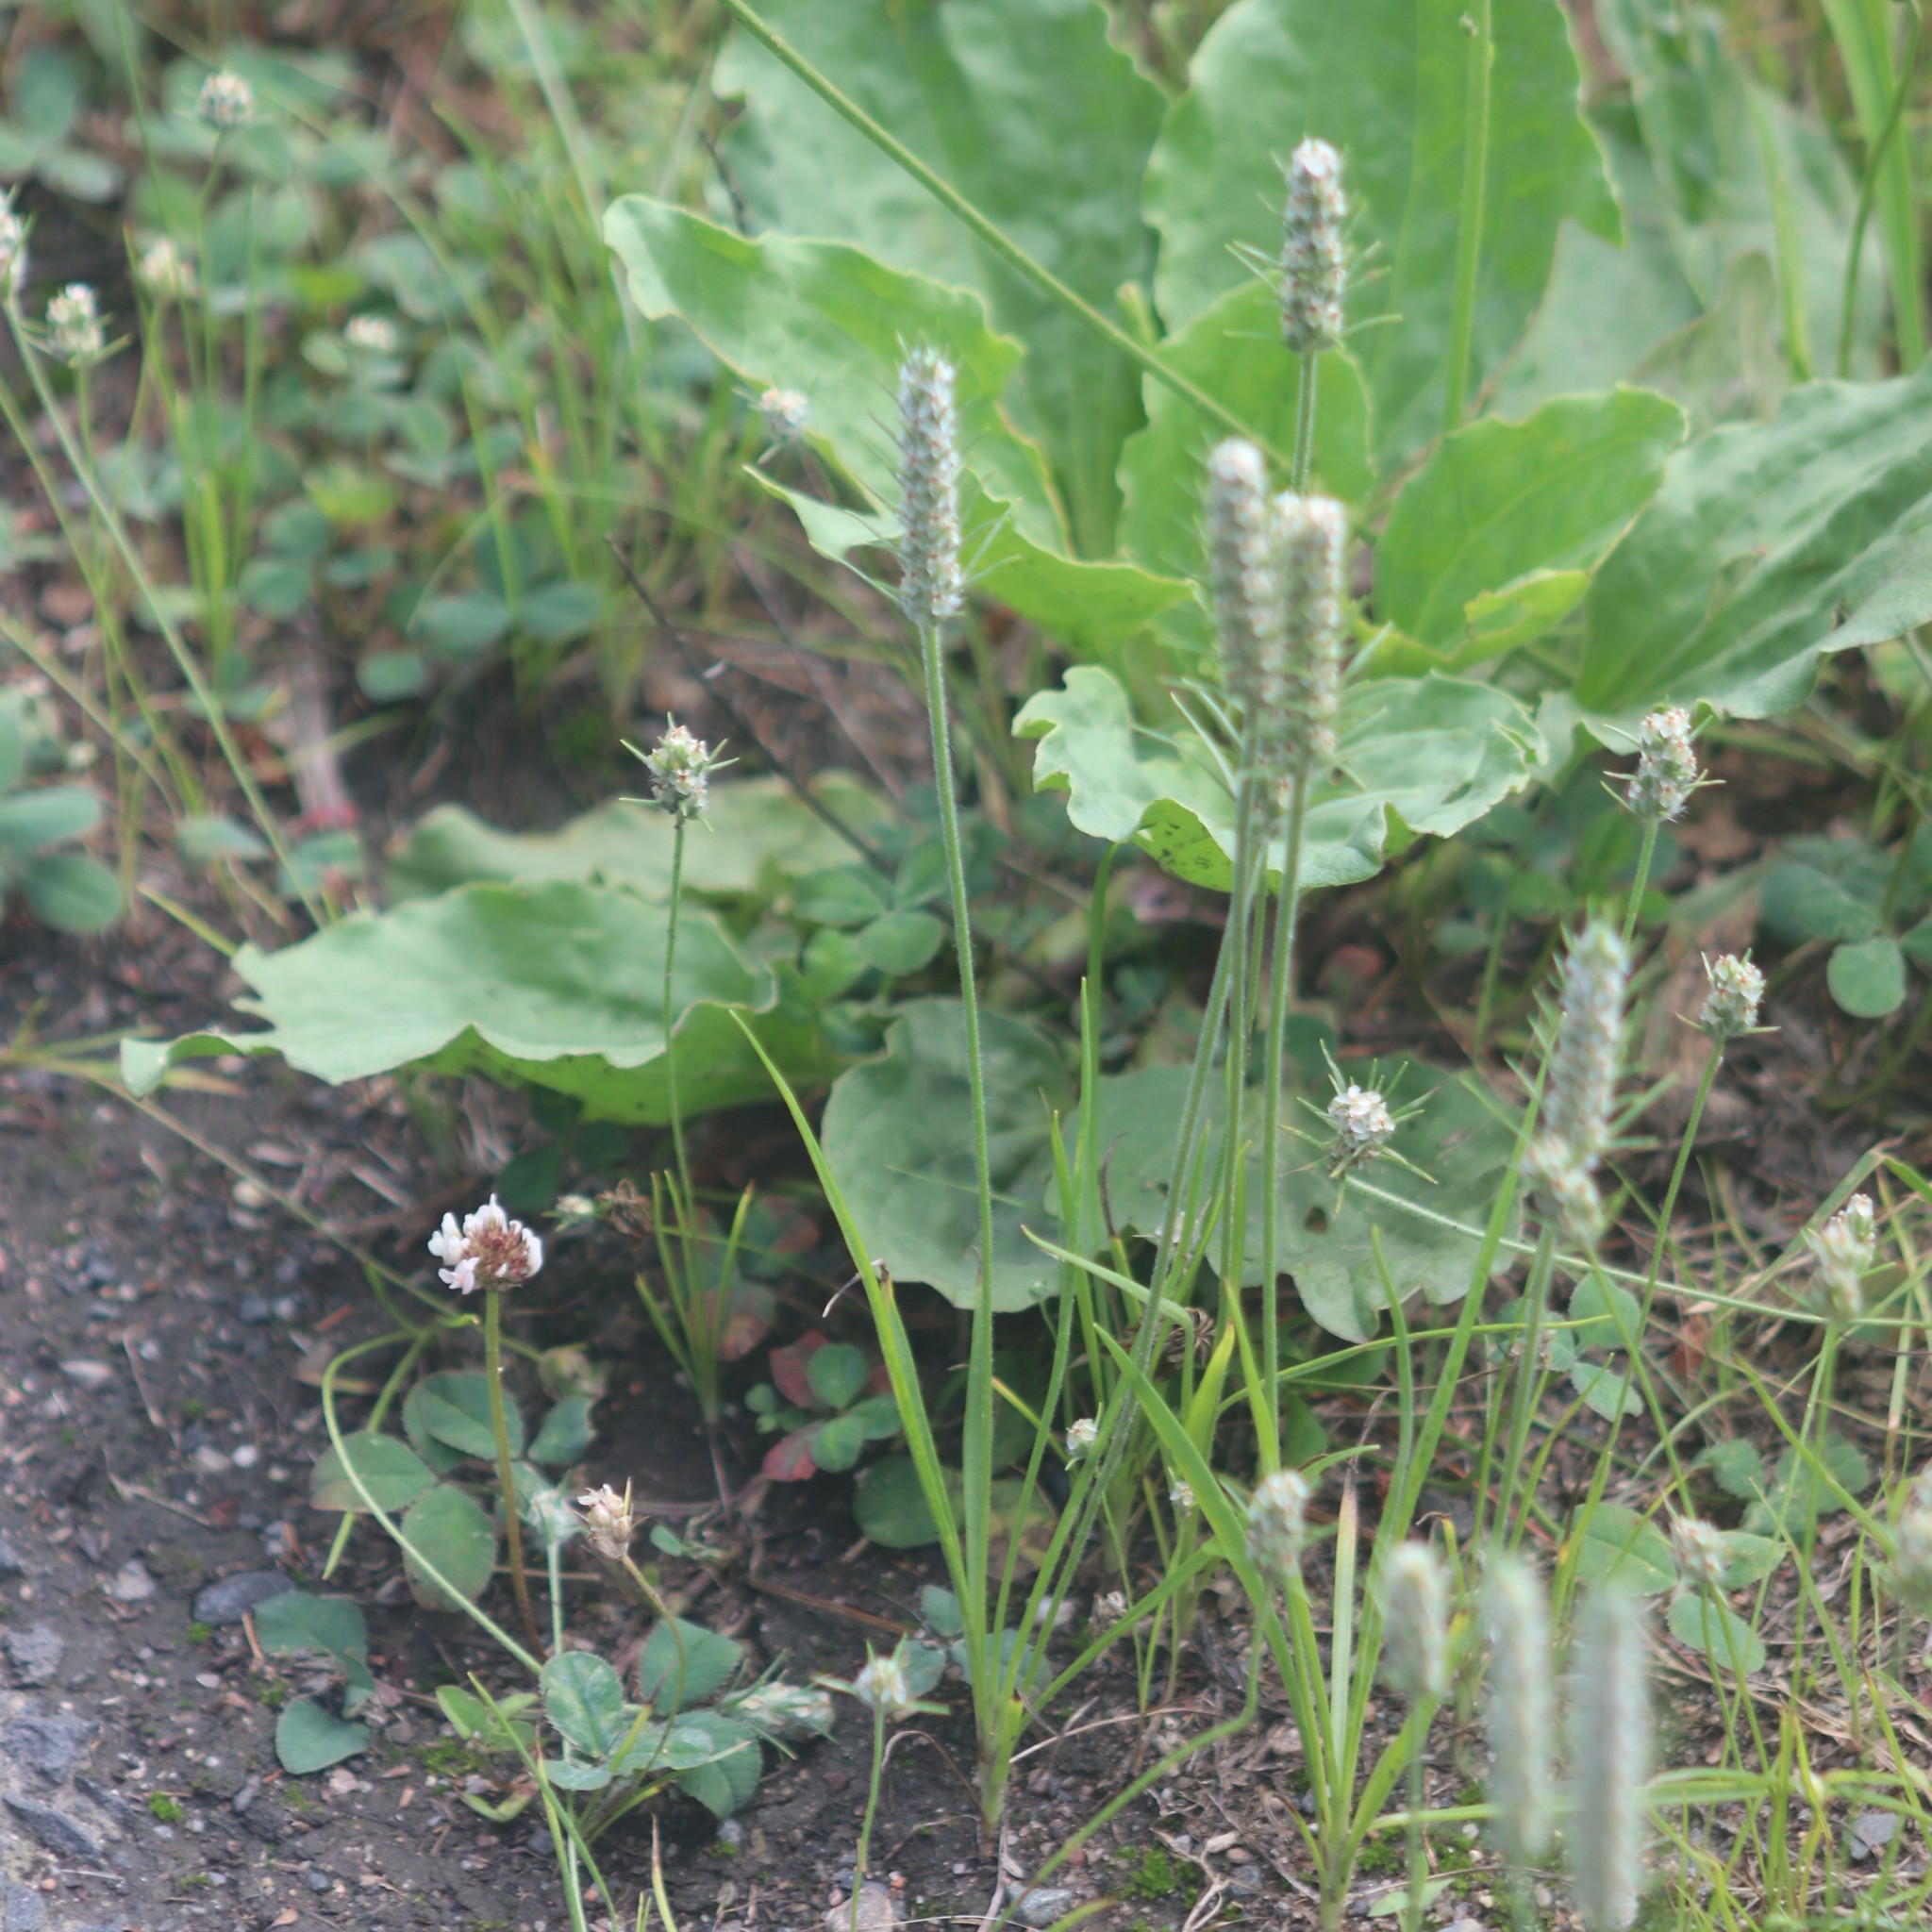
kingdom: Plantae
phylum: Tracheophyta
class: Magnoliopsida
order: Lamiales
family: Plantaginaceae
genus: Plantago
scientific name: Plantago aristata
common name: Bracted plantain
